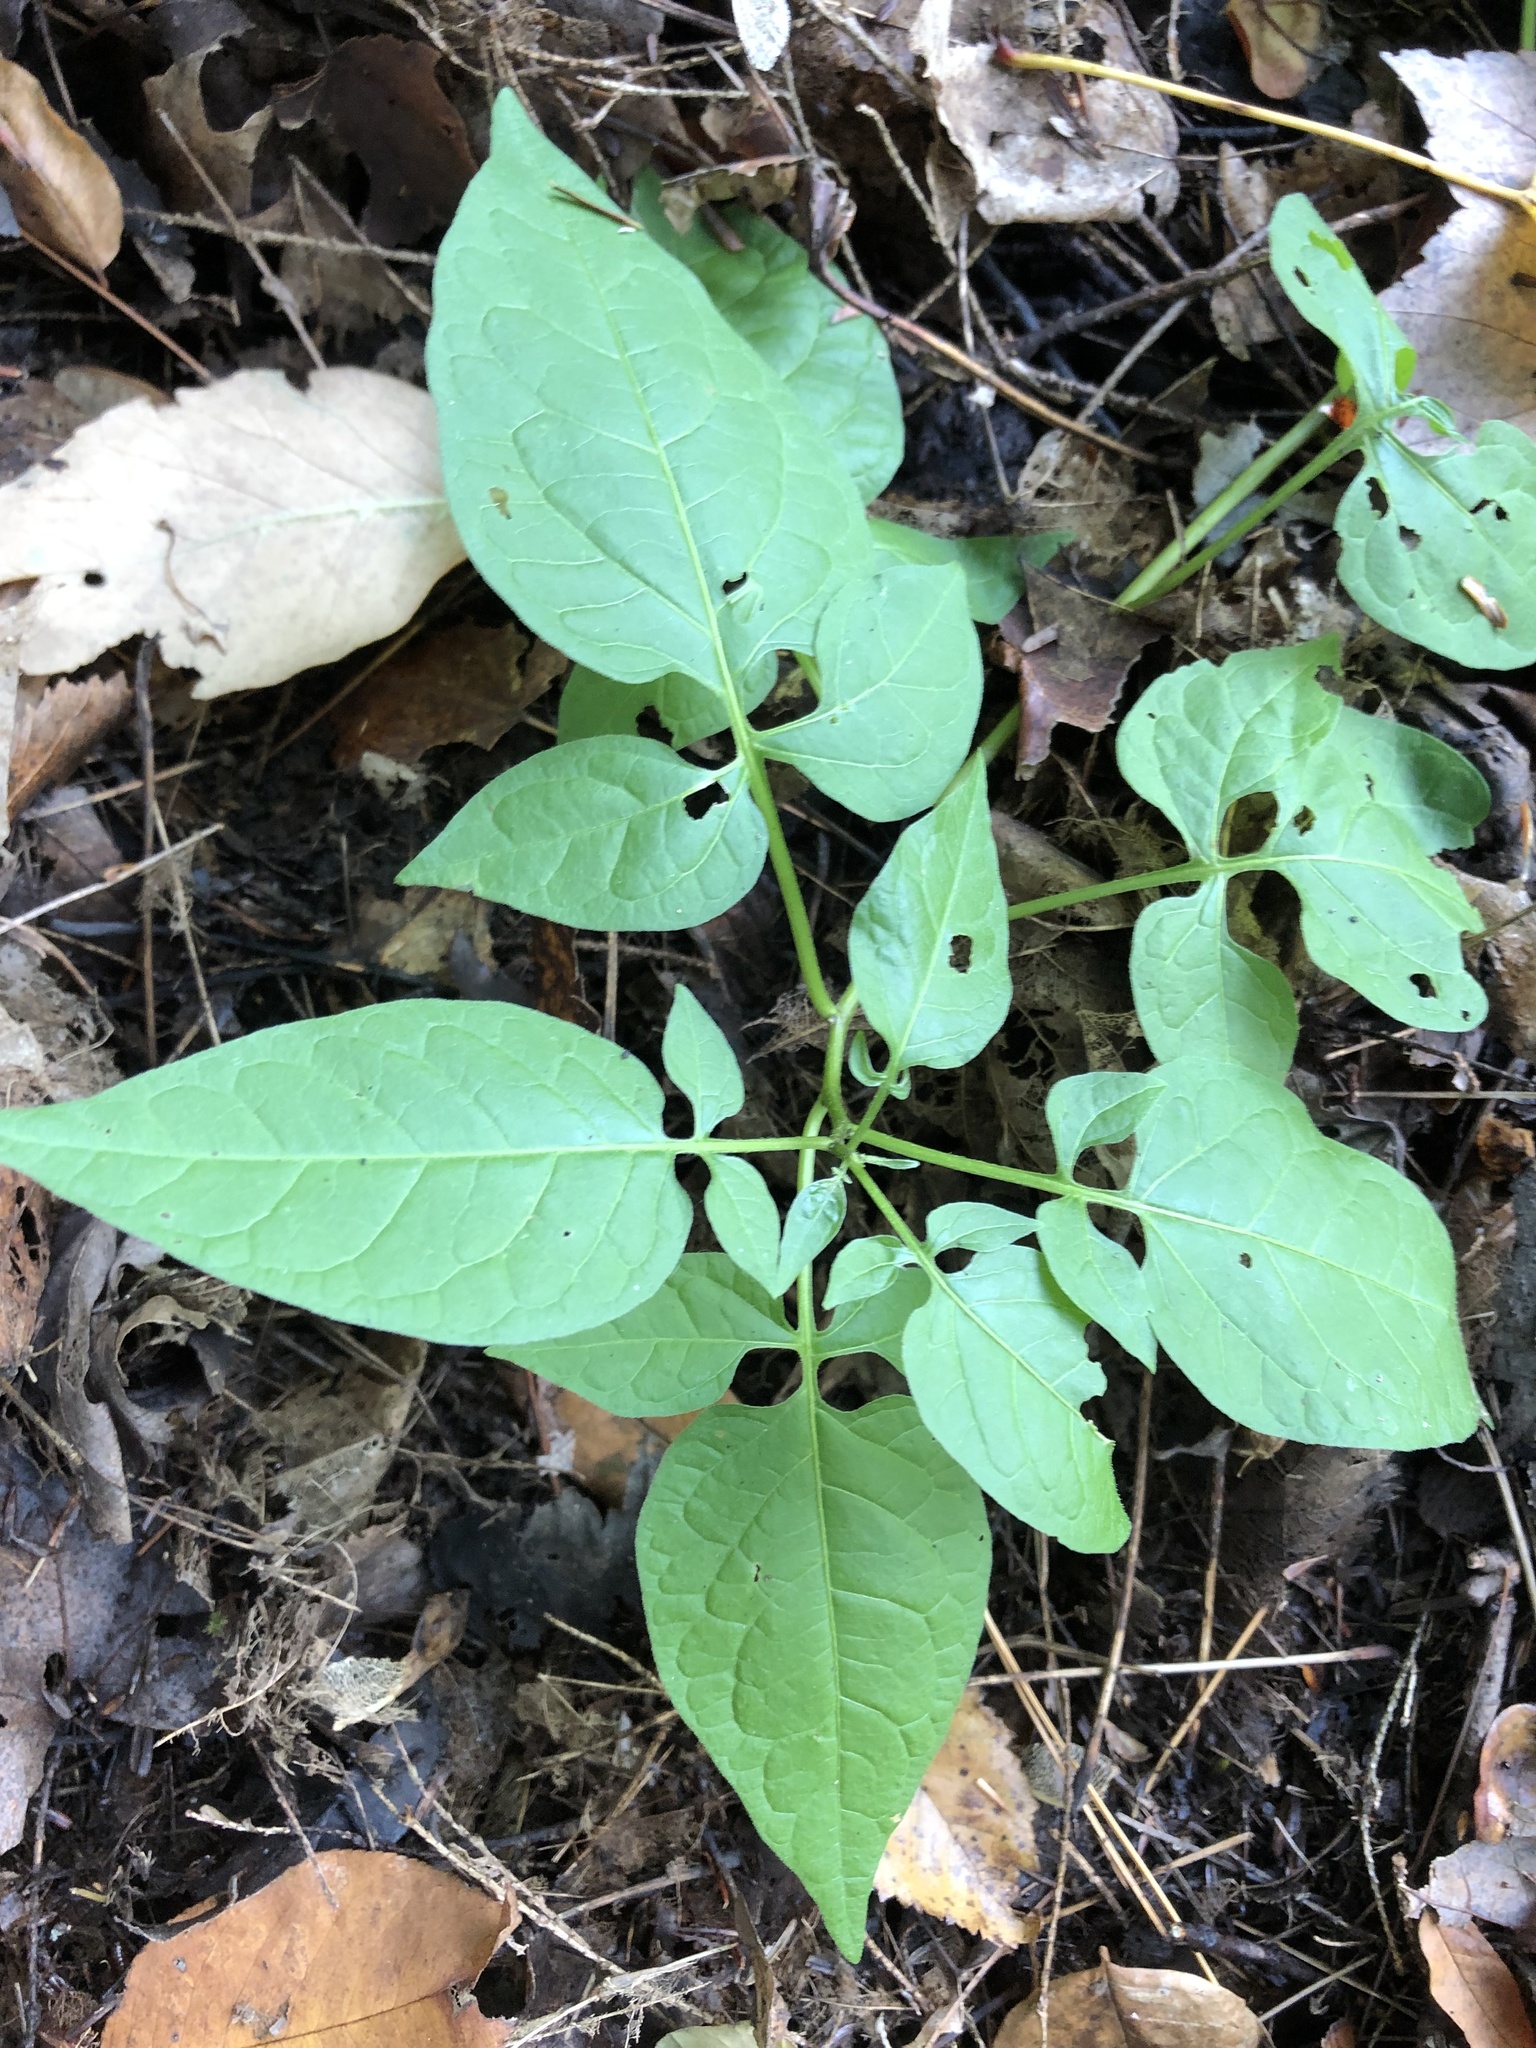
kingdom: Plantae
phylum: Tracheophyta
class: Magnoliopsida
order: Solanales
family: Solanaceae
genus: Solanum
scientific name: Solanum dulcamara
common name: Climbing nightshade
